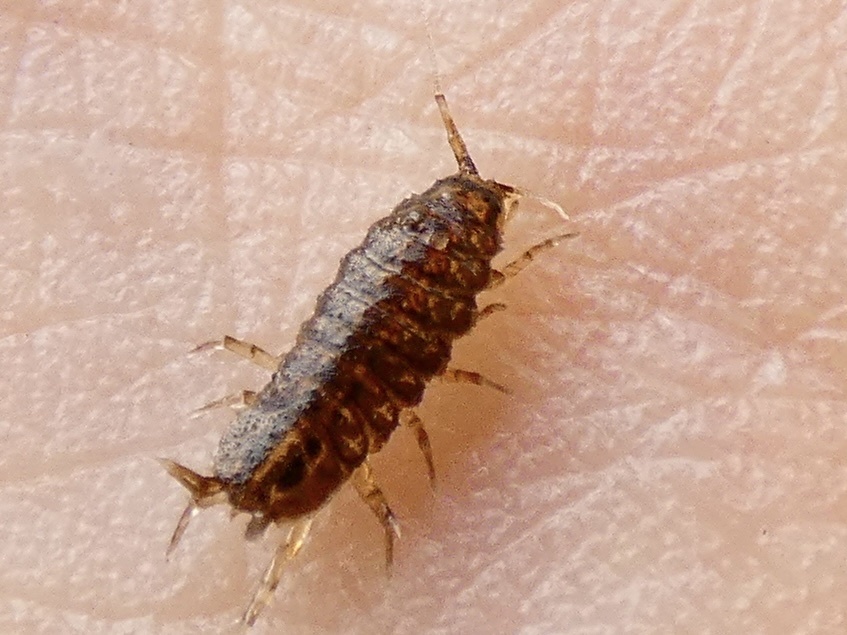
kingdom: Animalia
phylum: Arthropoda
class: Malacostraca
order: Isopoda
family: Asellidae
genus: Asellus
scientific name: Asellus aquaticus
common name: Water hog lice/slaters
